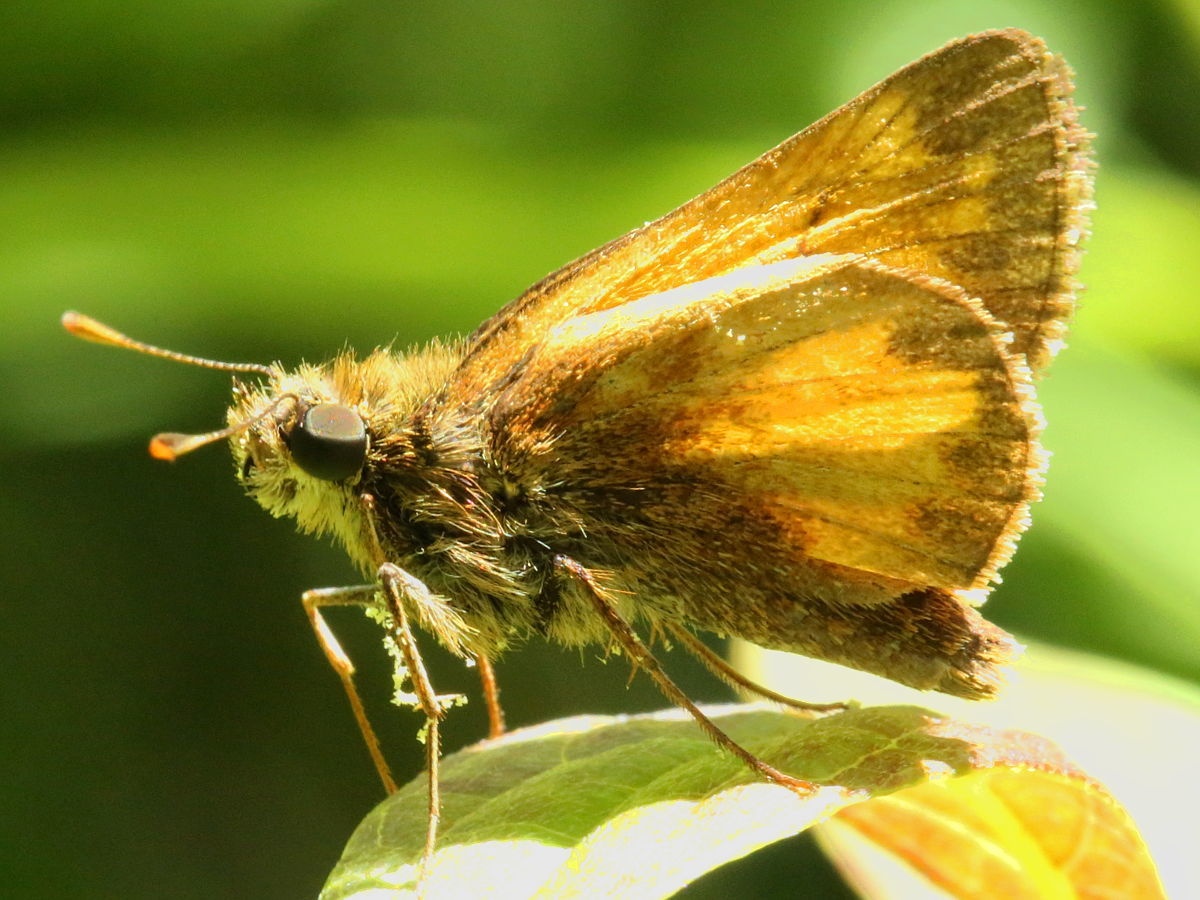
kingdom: Animalia
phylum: Arthropoda
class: Insecta
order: Lepidoptera
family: Hesperiidae
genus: Lon
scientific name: Lon hobomok
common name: Hobomok skipper
